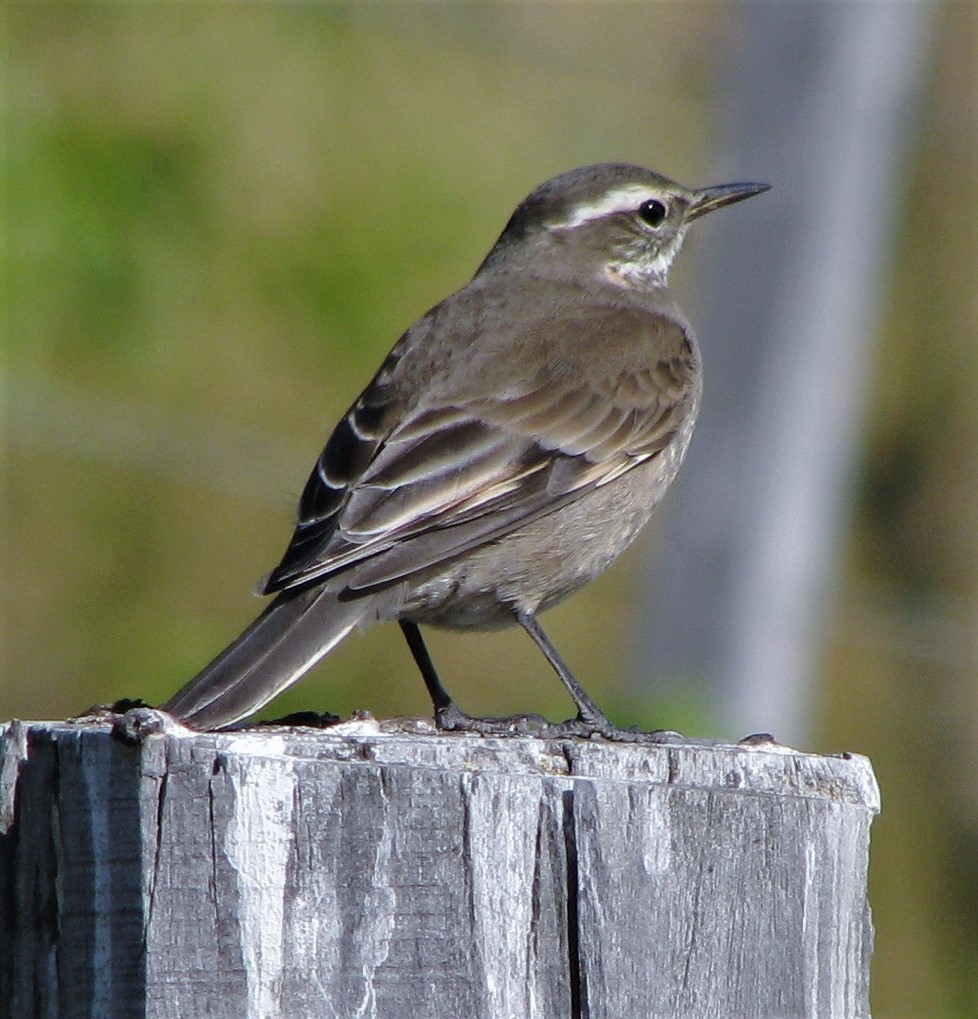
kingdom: Animalia
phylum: Chordata
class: Aves
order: Passeriformes
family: Furnariidae
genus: Cinclodes
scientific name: Cinclodes fuscus
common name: Buff-winged cinclodes
